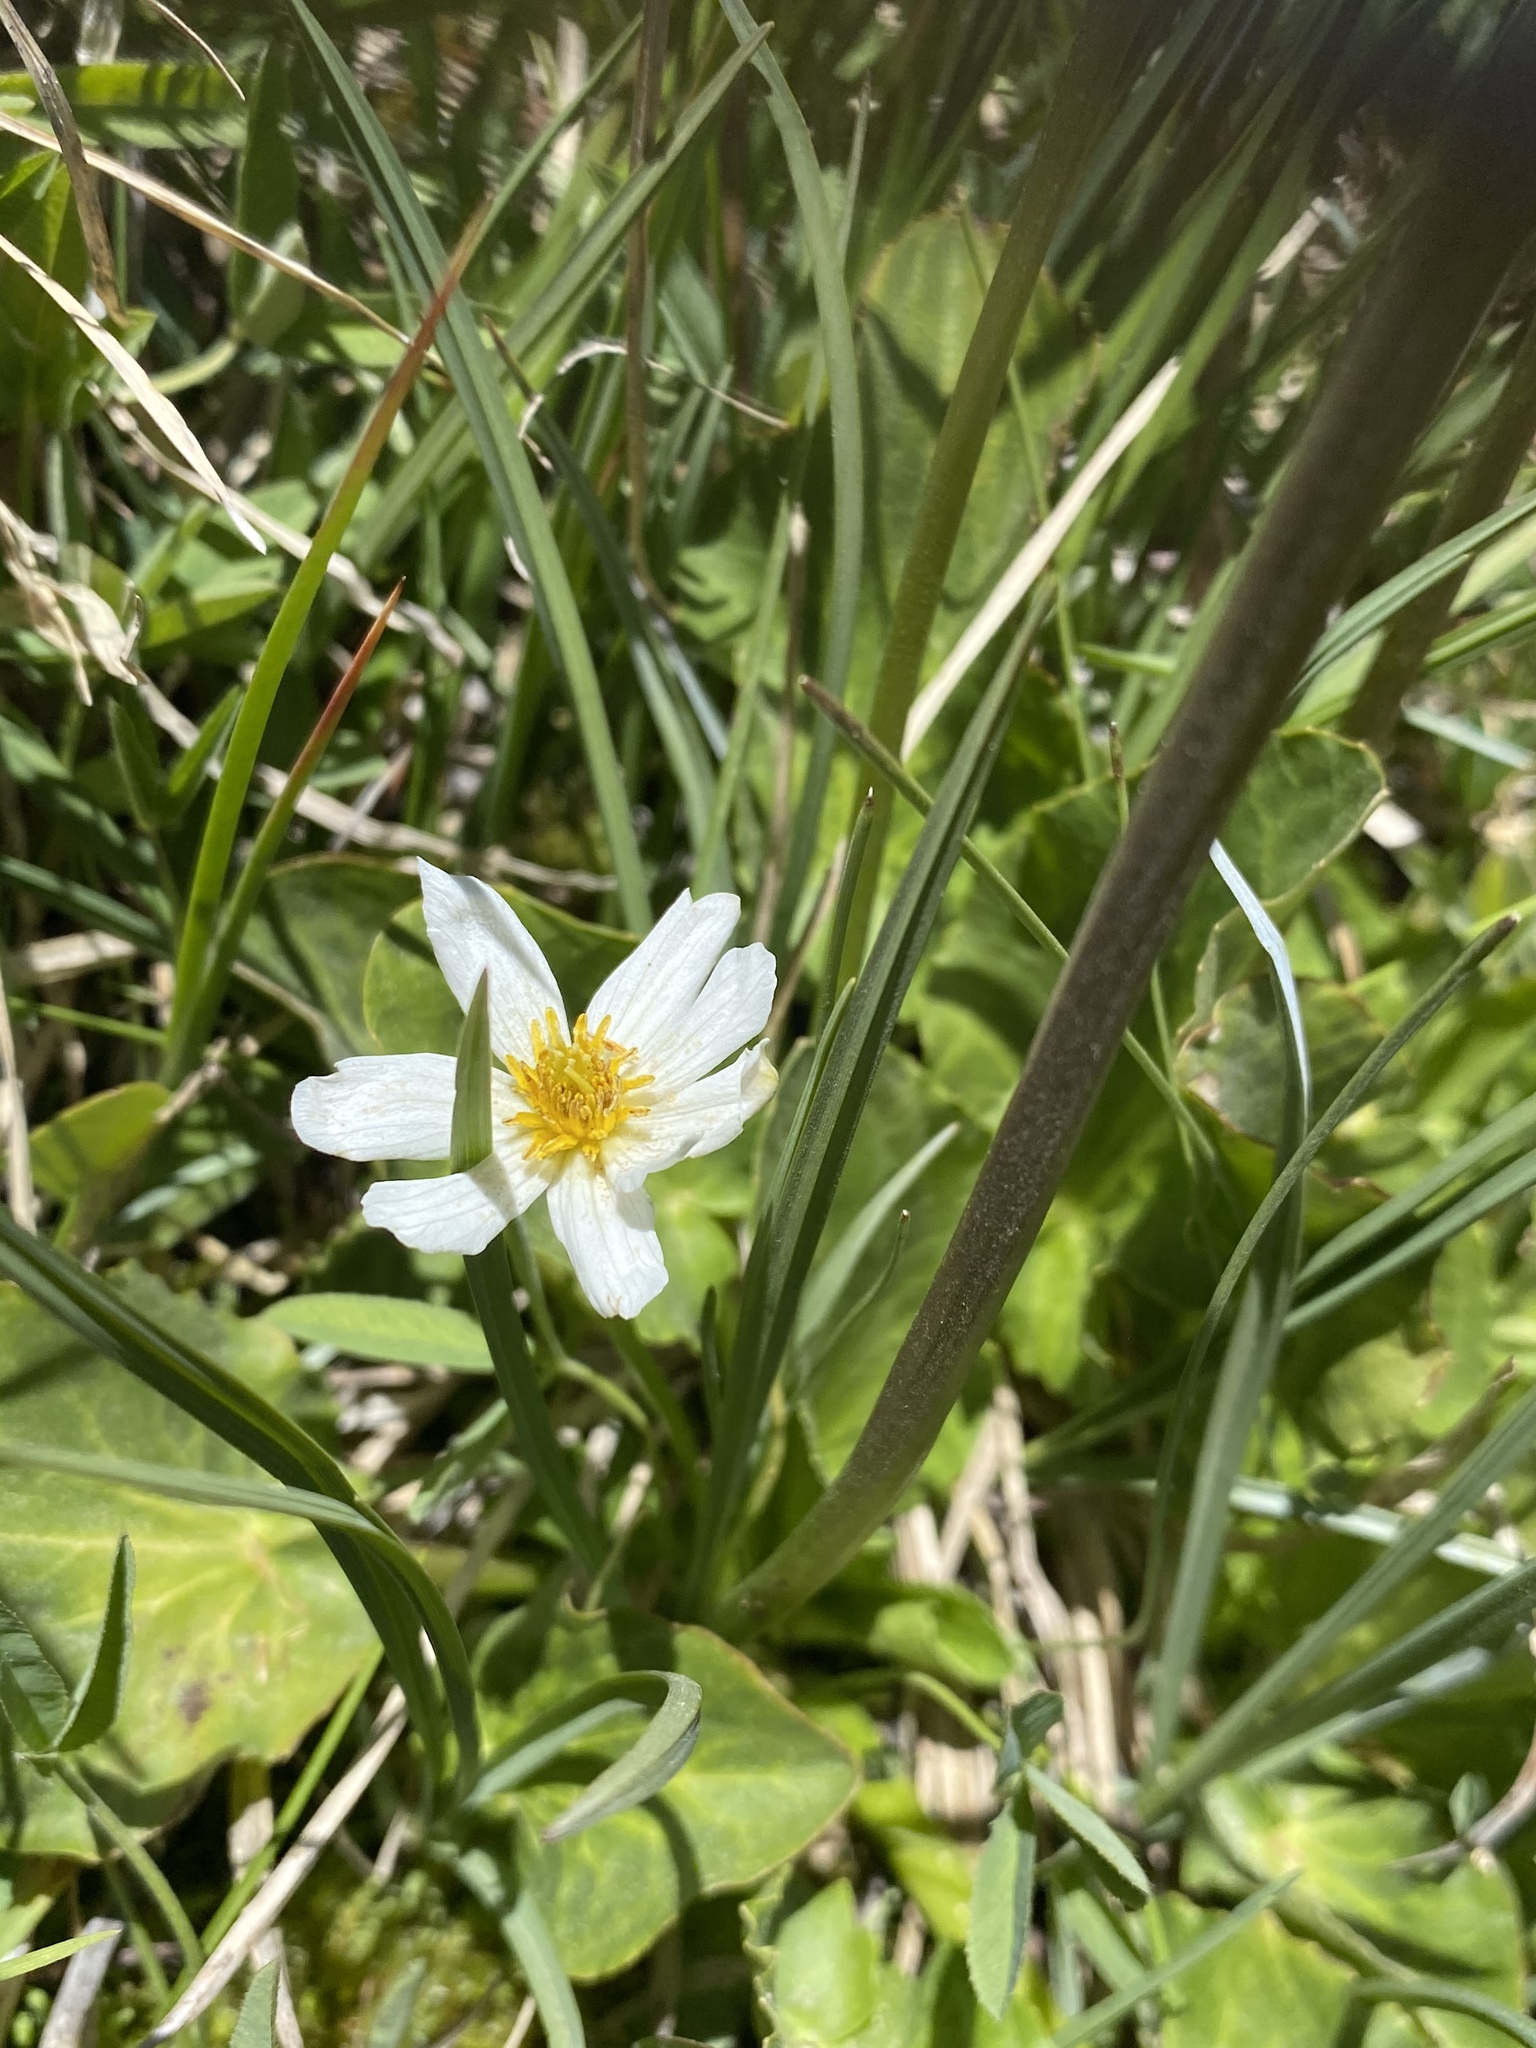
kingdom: Plantae
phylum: Tracheophyta
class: Magnoliopsida
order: Ranunculales
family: Ranunculaceae
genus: Caltha
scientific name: Caltha leptosepala
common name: Elkslip
